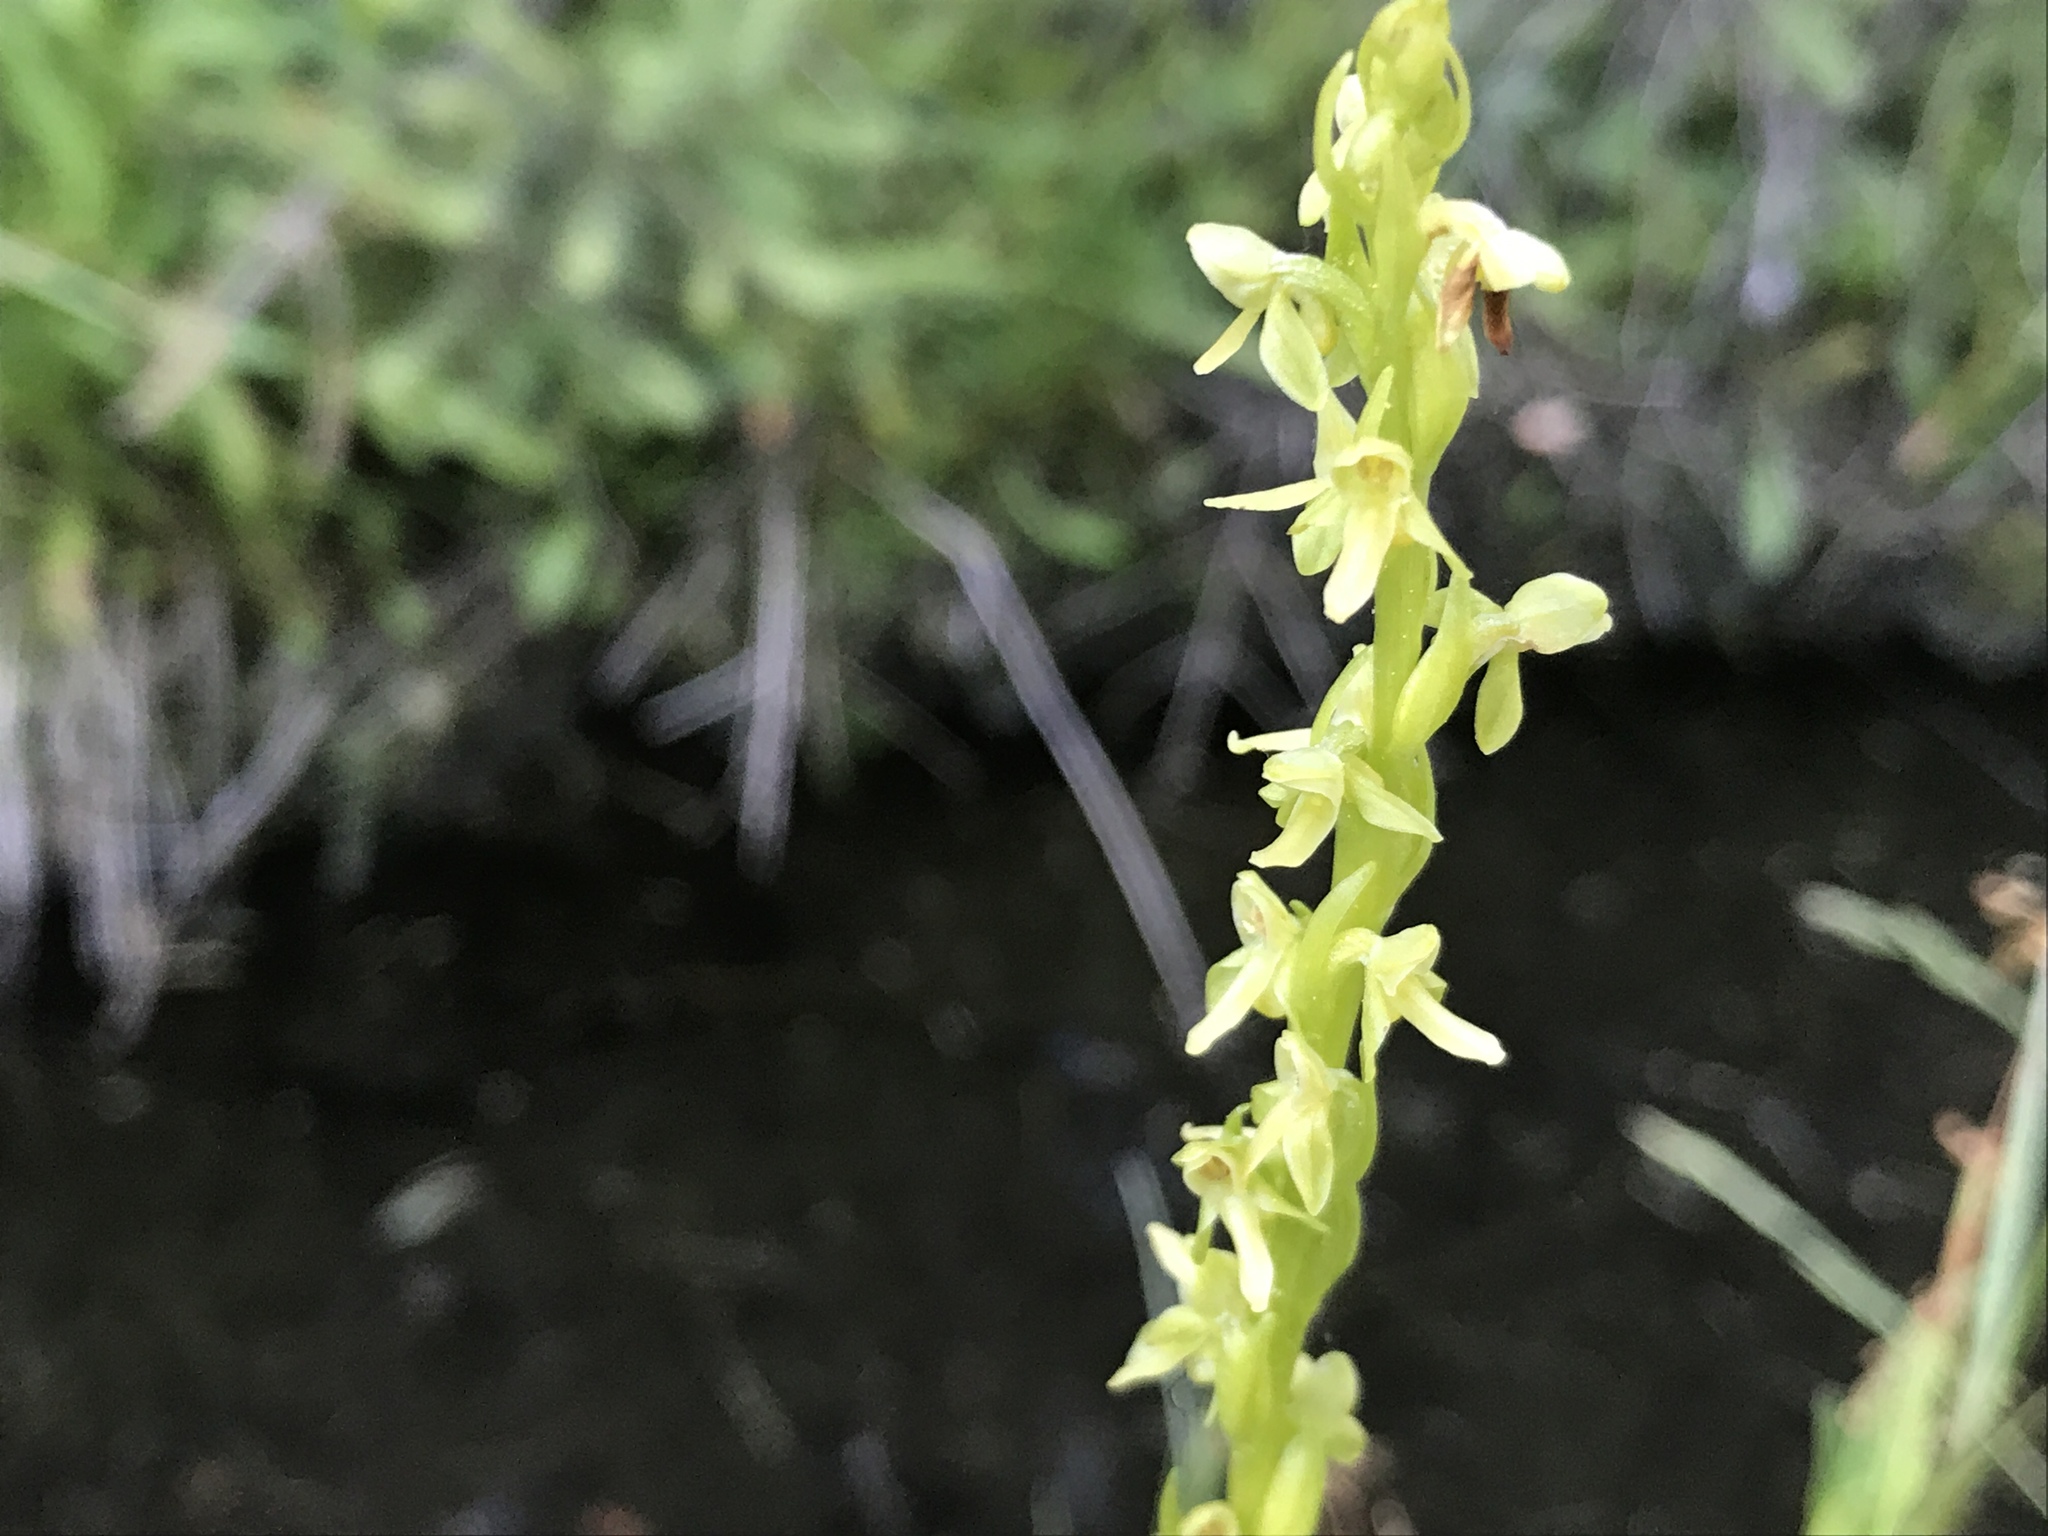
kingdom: Plantae
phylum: Tracheophyta
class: Liliopsida
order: Asparagales
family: Orchidaceae
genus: Platanthera
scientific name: Platanthera stricta
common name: Slender bog orchid
